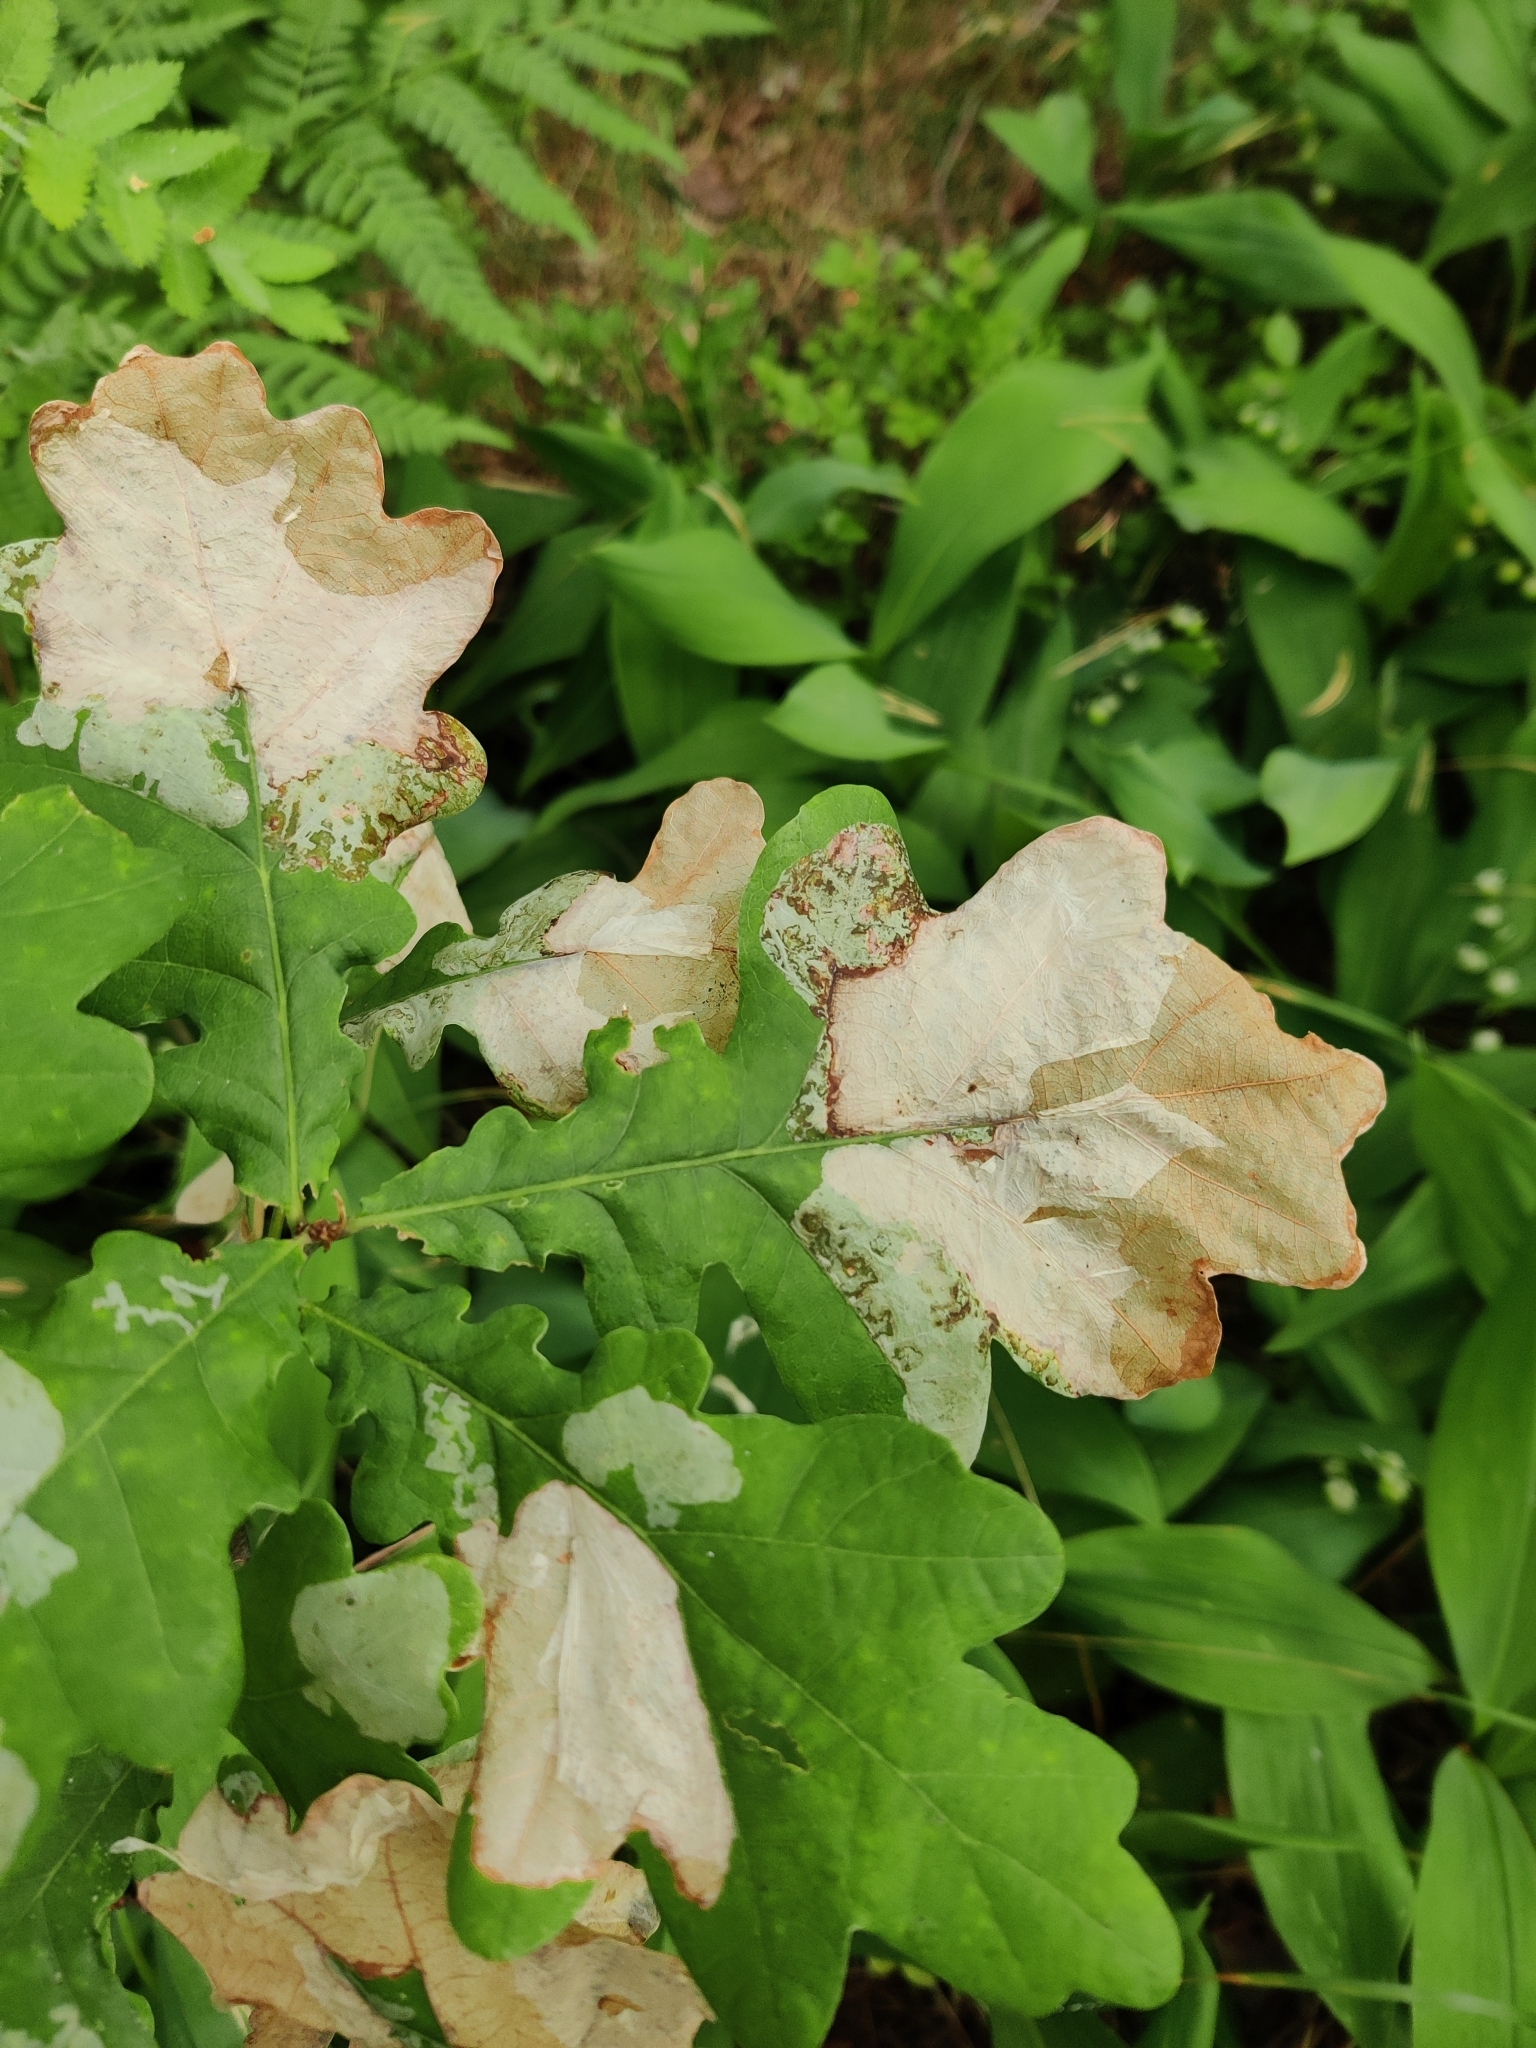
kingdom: Animalia
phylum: Arthropoda
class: Insecta
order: Lepidoptera
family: Gracillariidae
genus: Acrocercops
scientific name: Acrocercops brongniardella
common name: Brown oak slender
